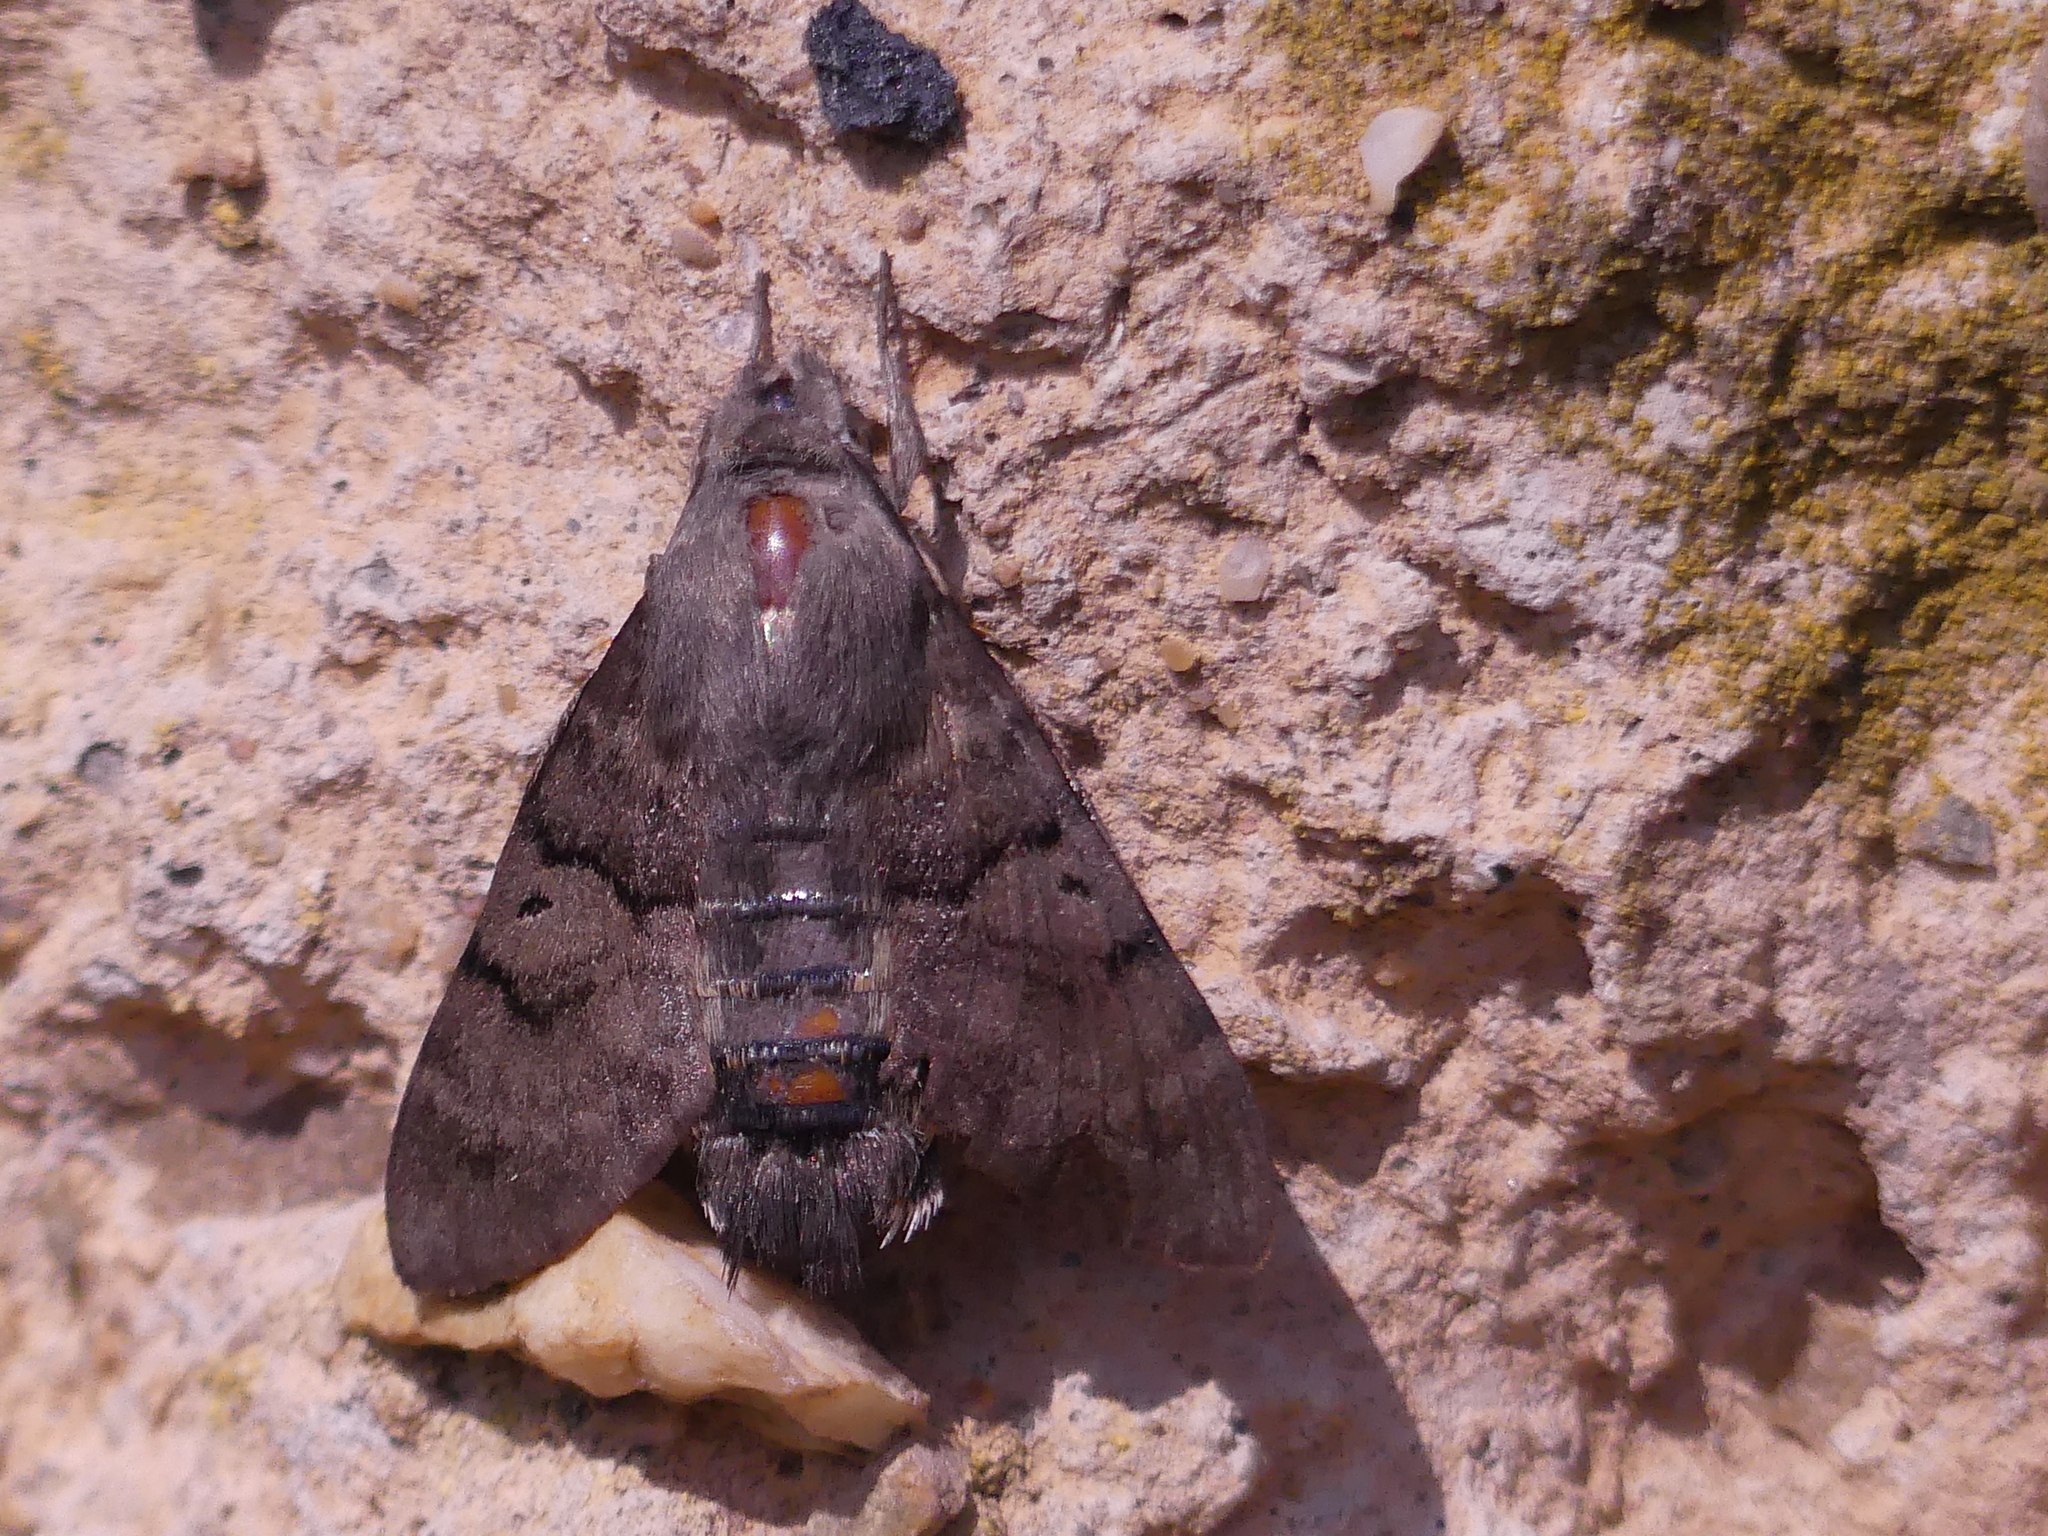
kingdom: Animalia
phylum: Arthropoda
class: Insecta
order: Lepidoptera
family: Sphingidae
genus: Macroglossum
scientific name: Macroglossum stellatarum
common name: Humming-bird hawk-moth
